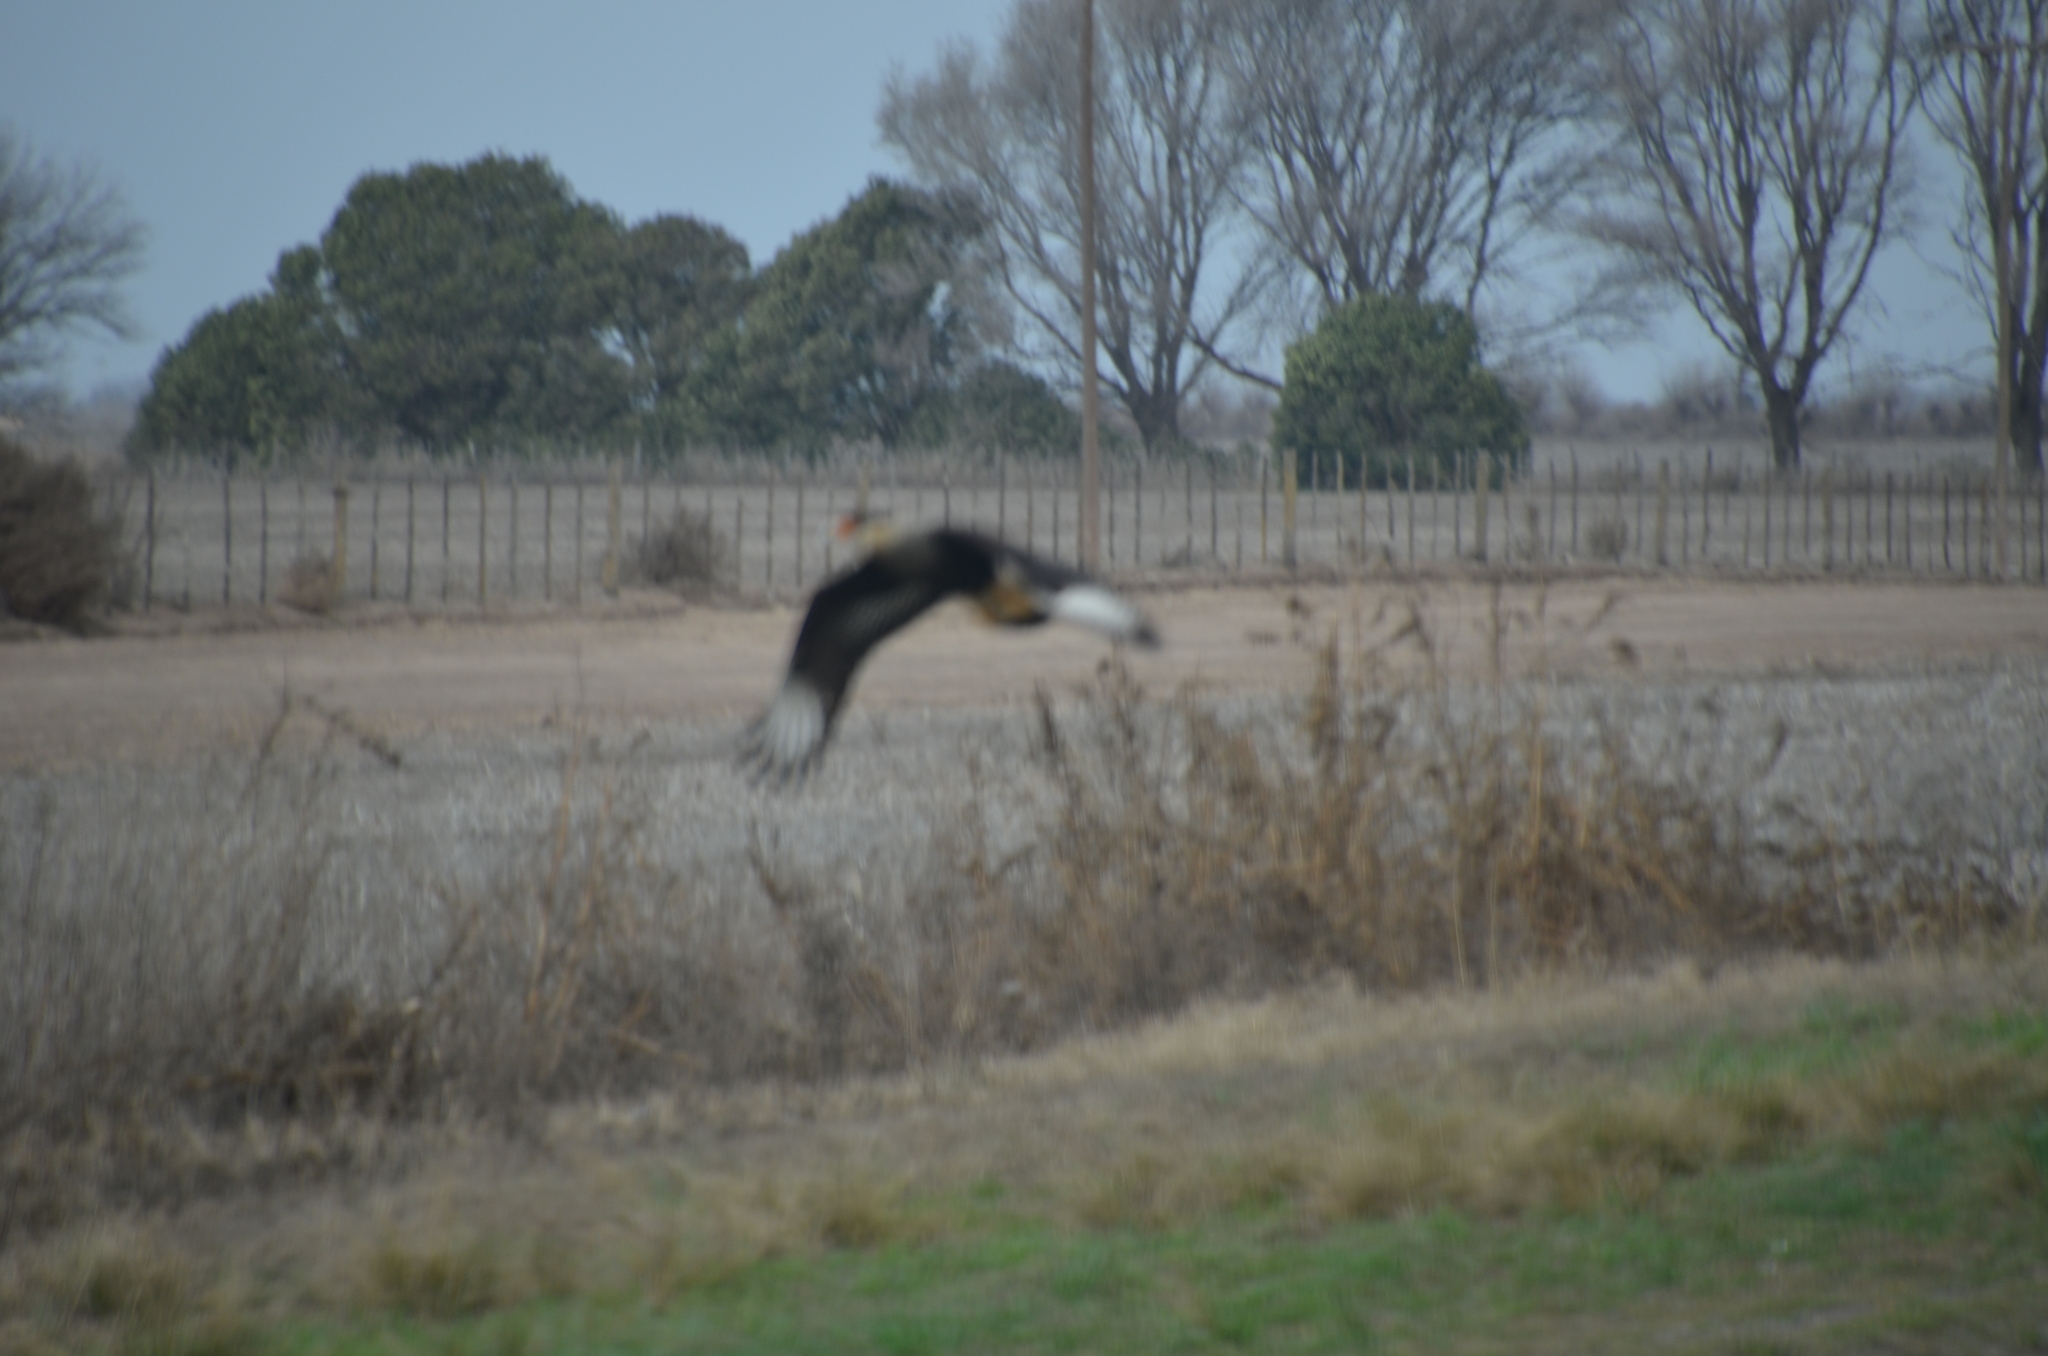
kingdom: Animalia
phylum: Chordata
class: Aves
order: Falconiformes
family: Falconidae
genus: Caracara
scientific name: Caracara plancus
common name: Southern caracara
